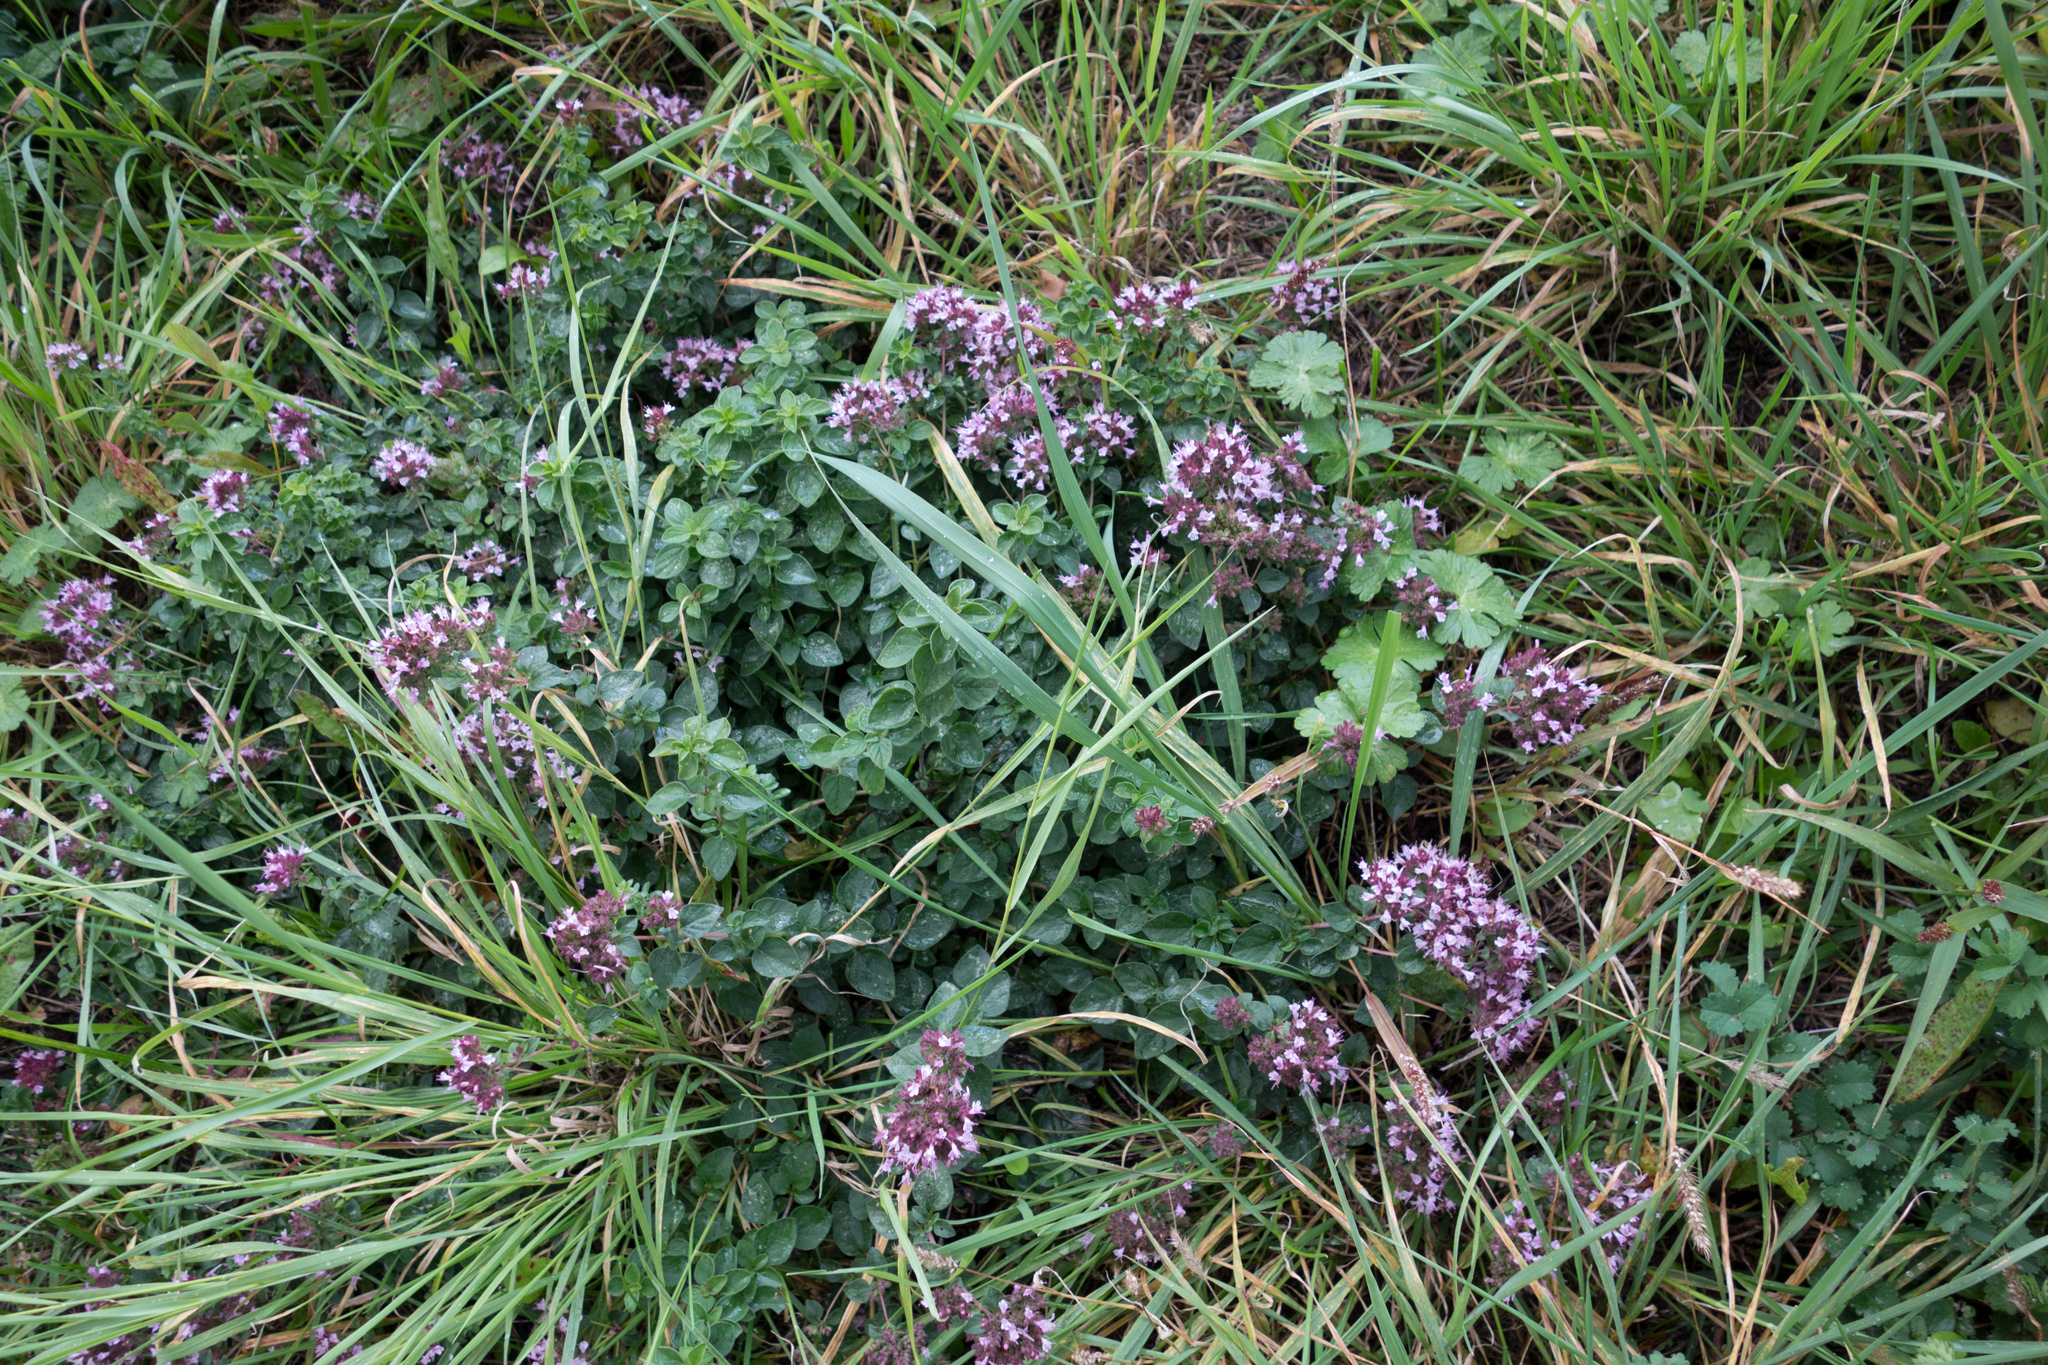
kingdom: Plantae
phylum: Tracheophyta
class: Magnoliopsida
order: Lamiales
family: Lamiaceae
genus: Origanum
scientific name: Origanum vulgare
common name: Wild marjoram
